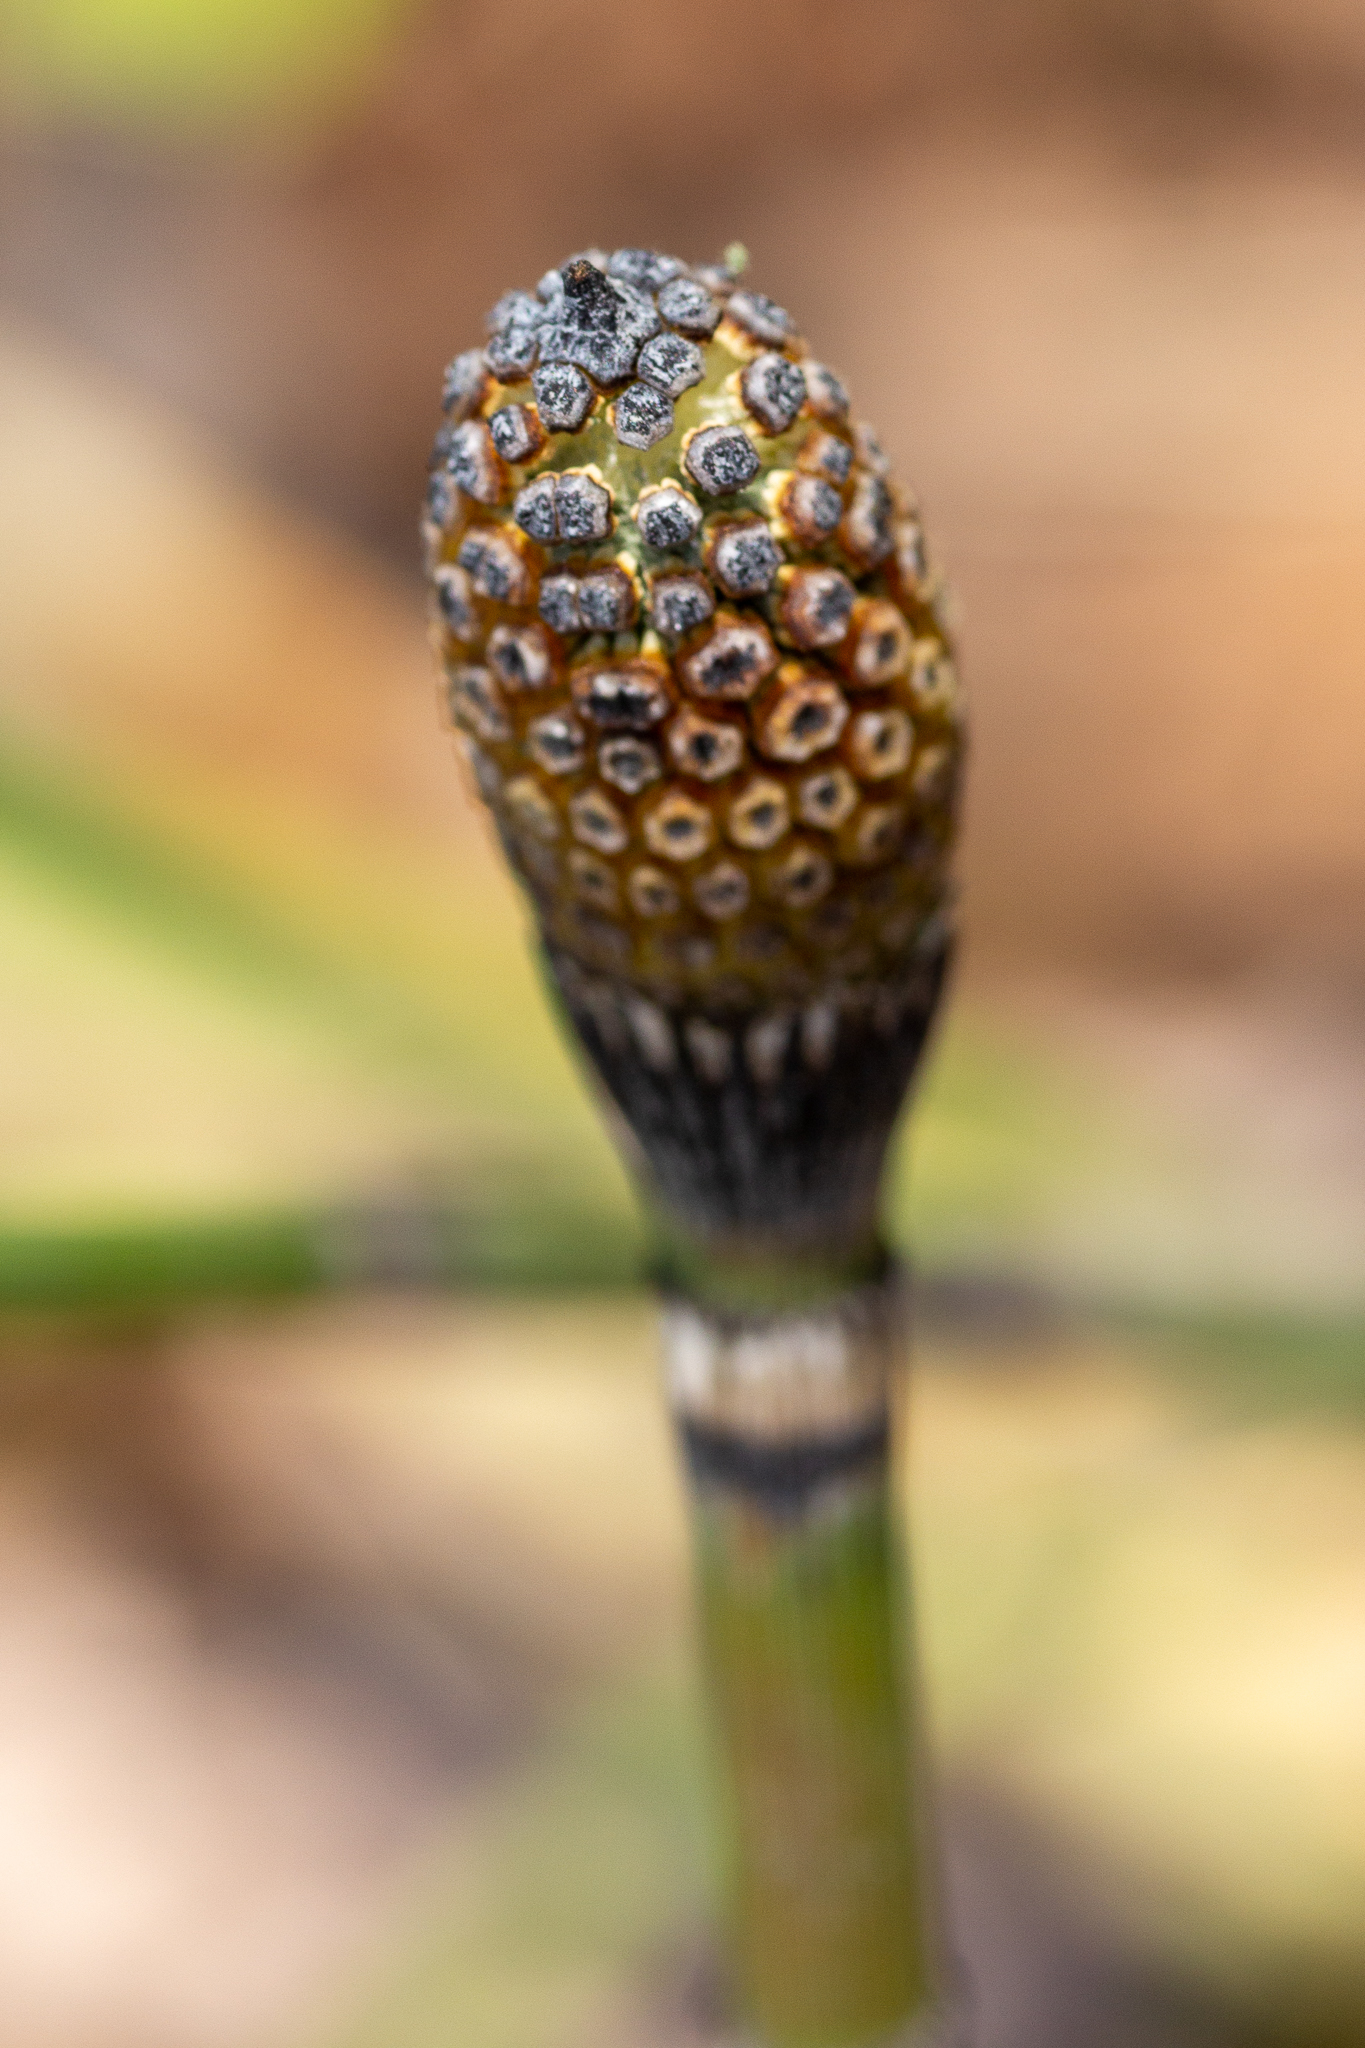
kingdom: Plantae
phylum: Tracheophyta
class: Polypodiopsida
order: Equisetales
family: Equisetaceae
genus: Equisetum
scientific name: Equisetum praealtum
